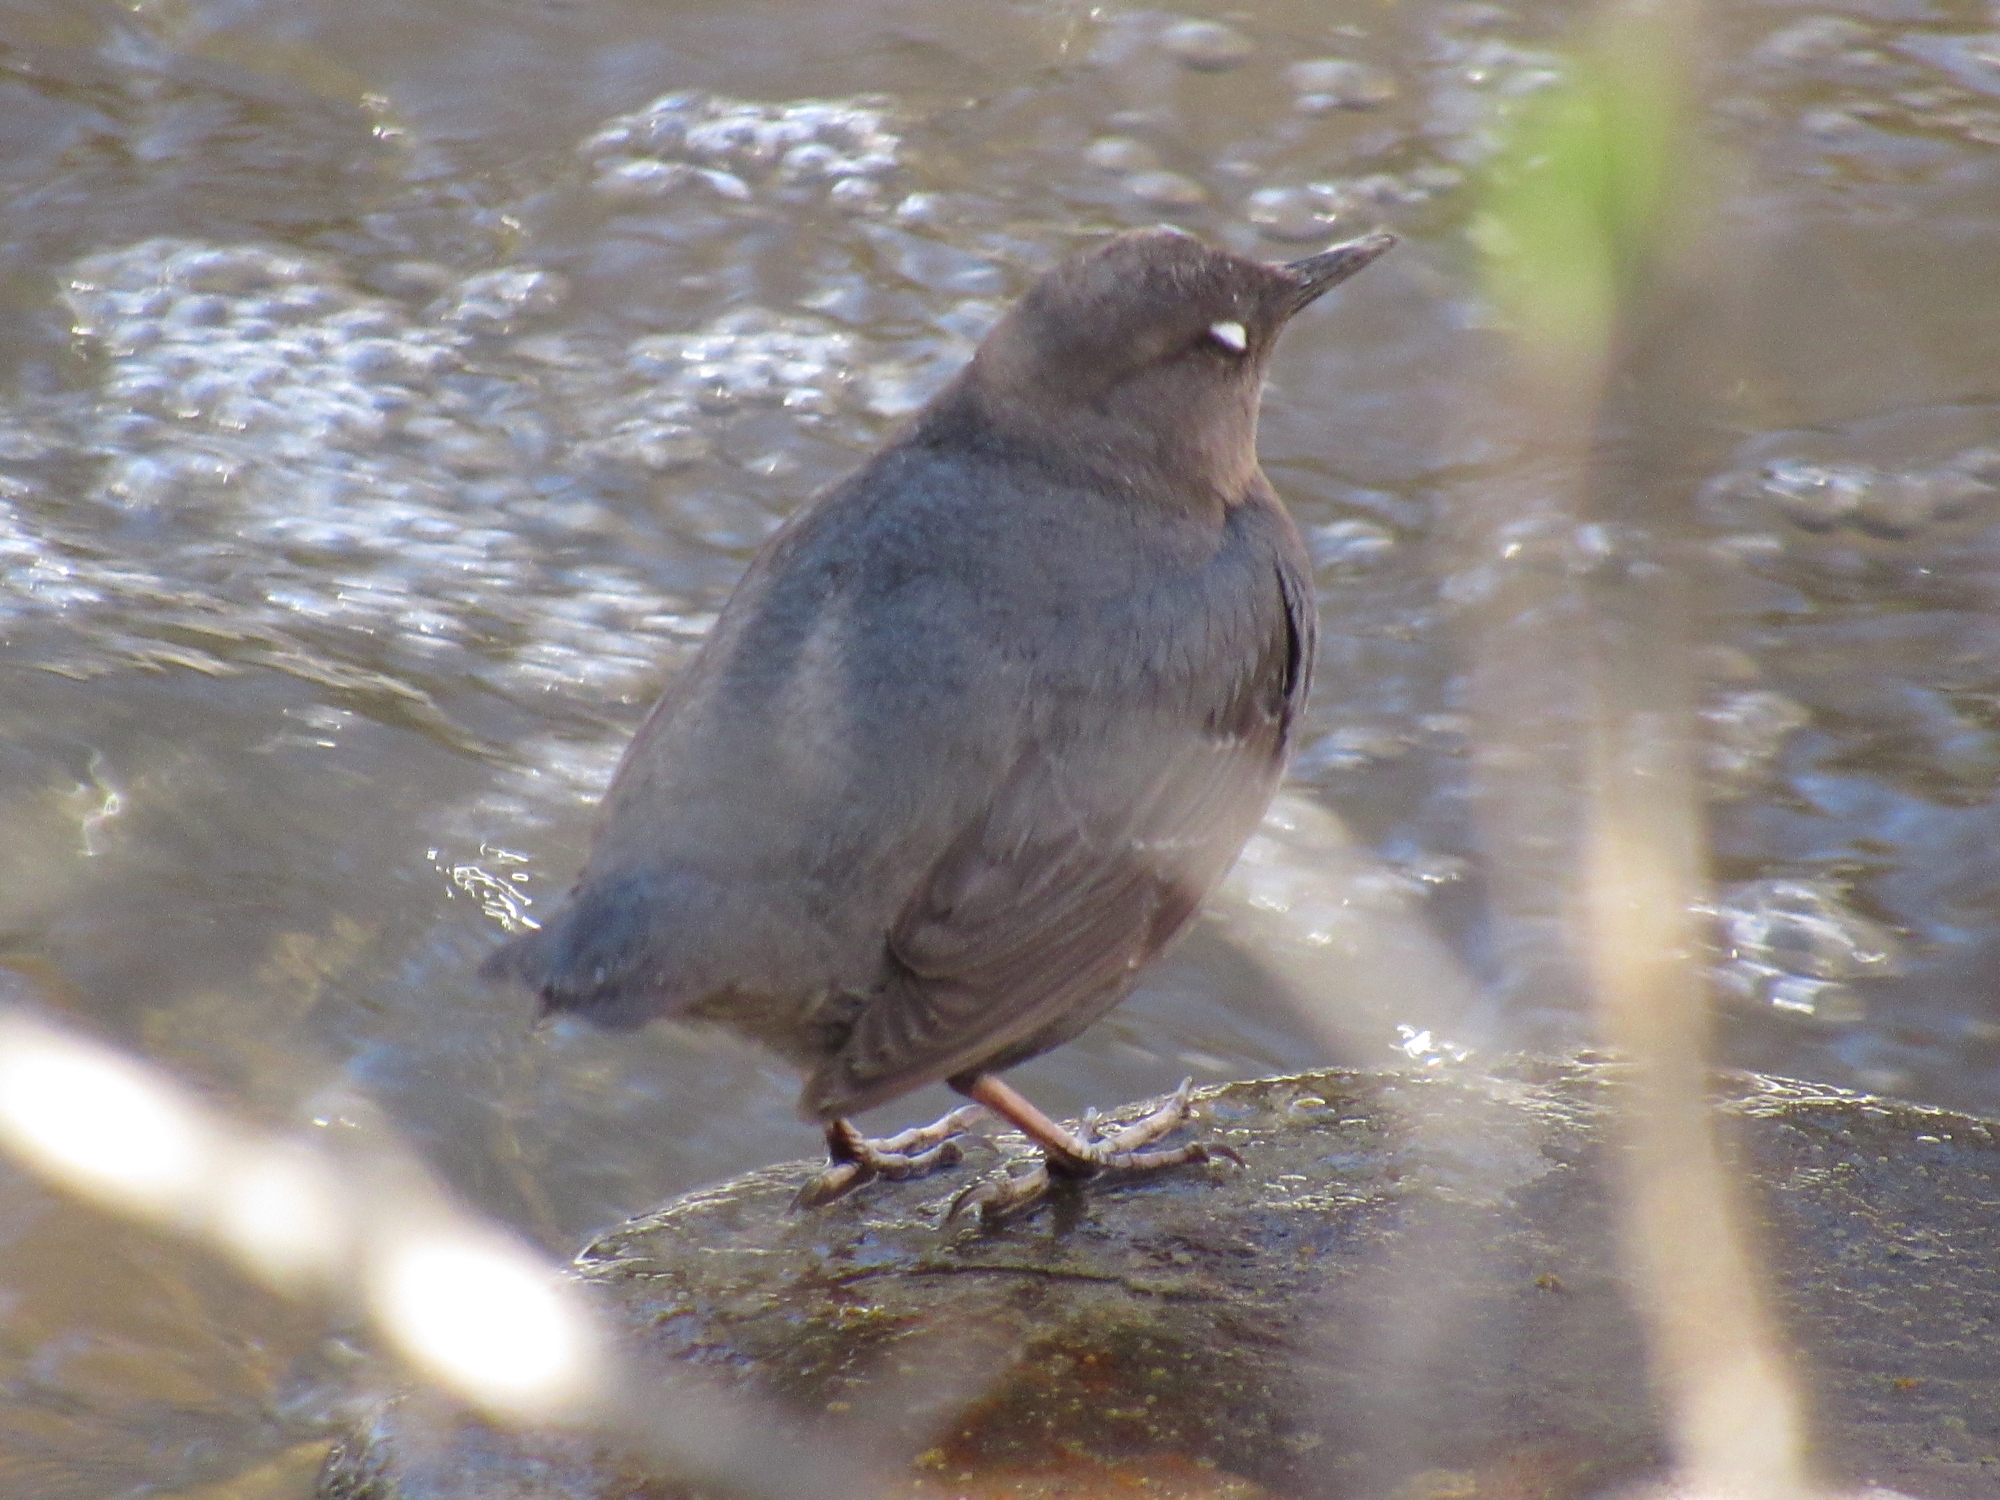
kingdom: Animalia
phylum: Chordata
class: Aves
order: Passeriformes
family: Cinclidae
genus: Cinclus
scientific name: Cinclus mexicanus
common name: American dipper
